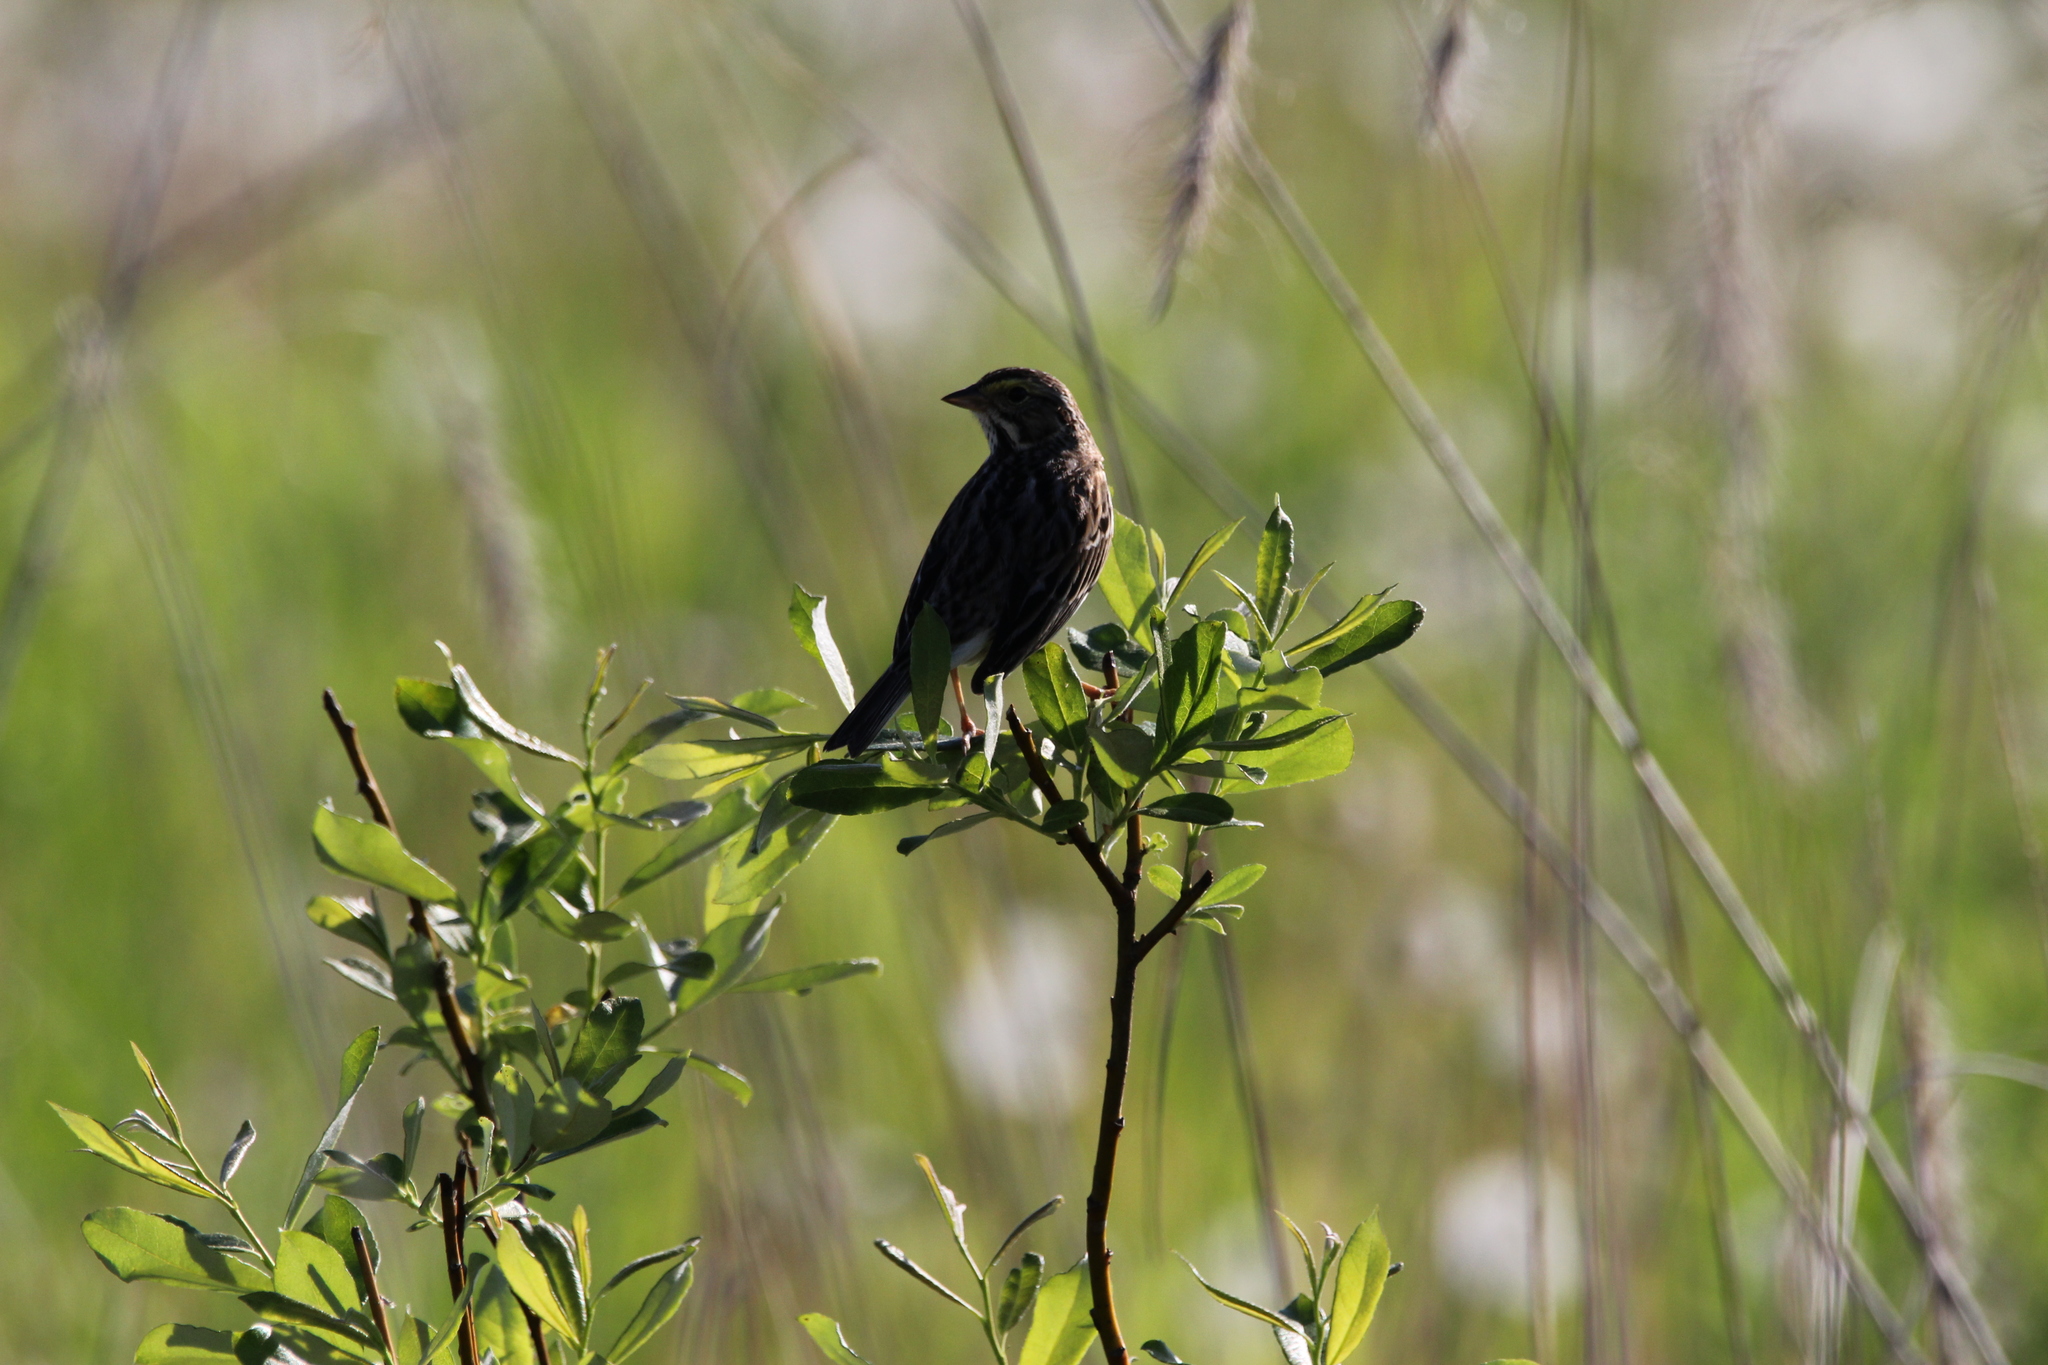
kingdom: Animalia
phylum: Chordata
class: Aves
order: Passeriformes
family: Passerellidae
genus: Passerculus
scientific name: Passerculus sandwichensis
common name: Savannah sparrow
